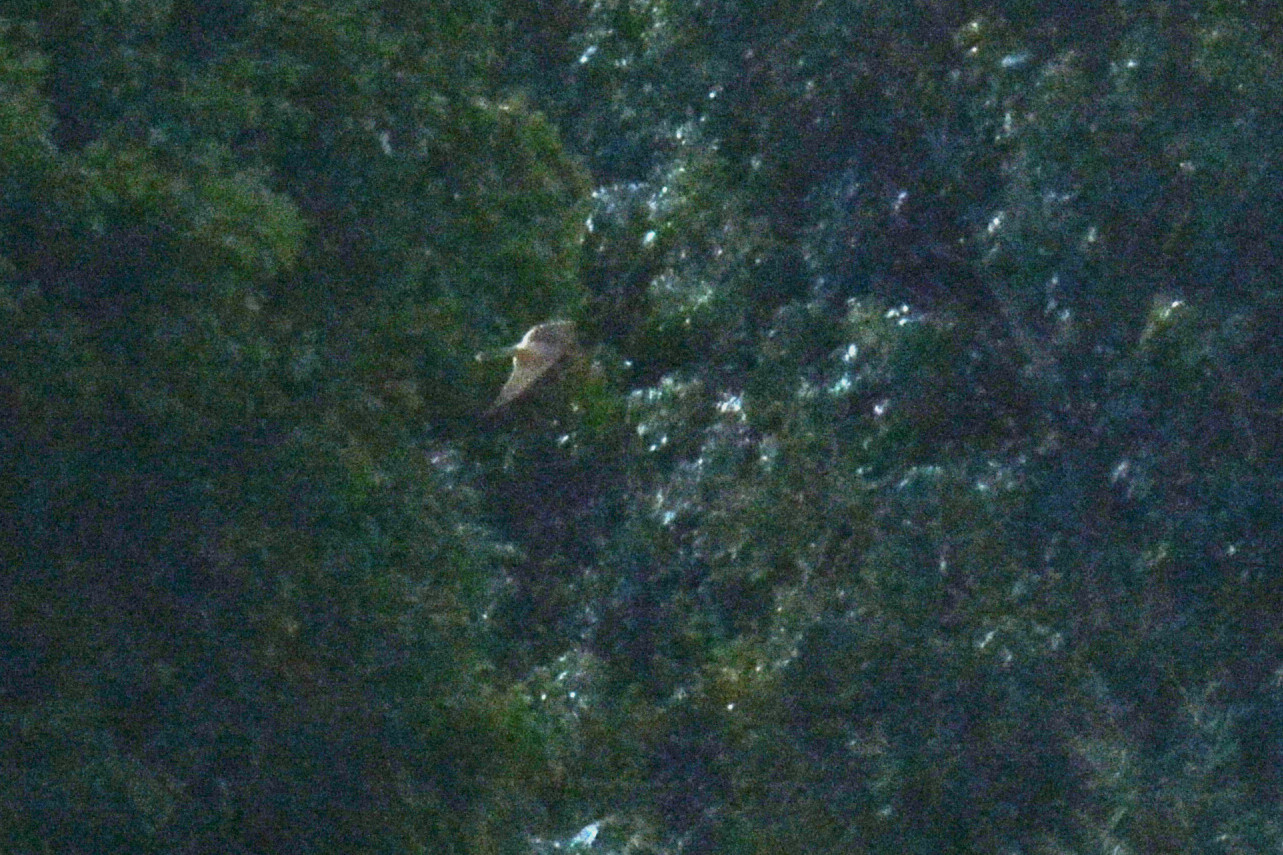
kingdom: Animalia
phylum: Chordata
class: Aves
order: Falconiformes
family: Falconidae
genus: Falco
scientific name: Falco tinnunculus
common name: Common kestrel
